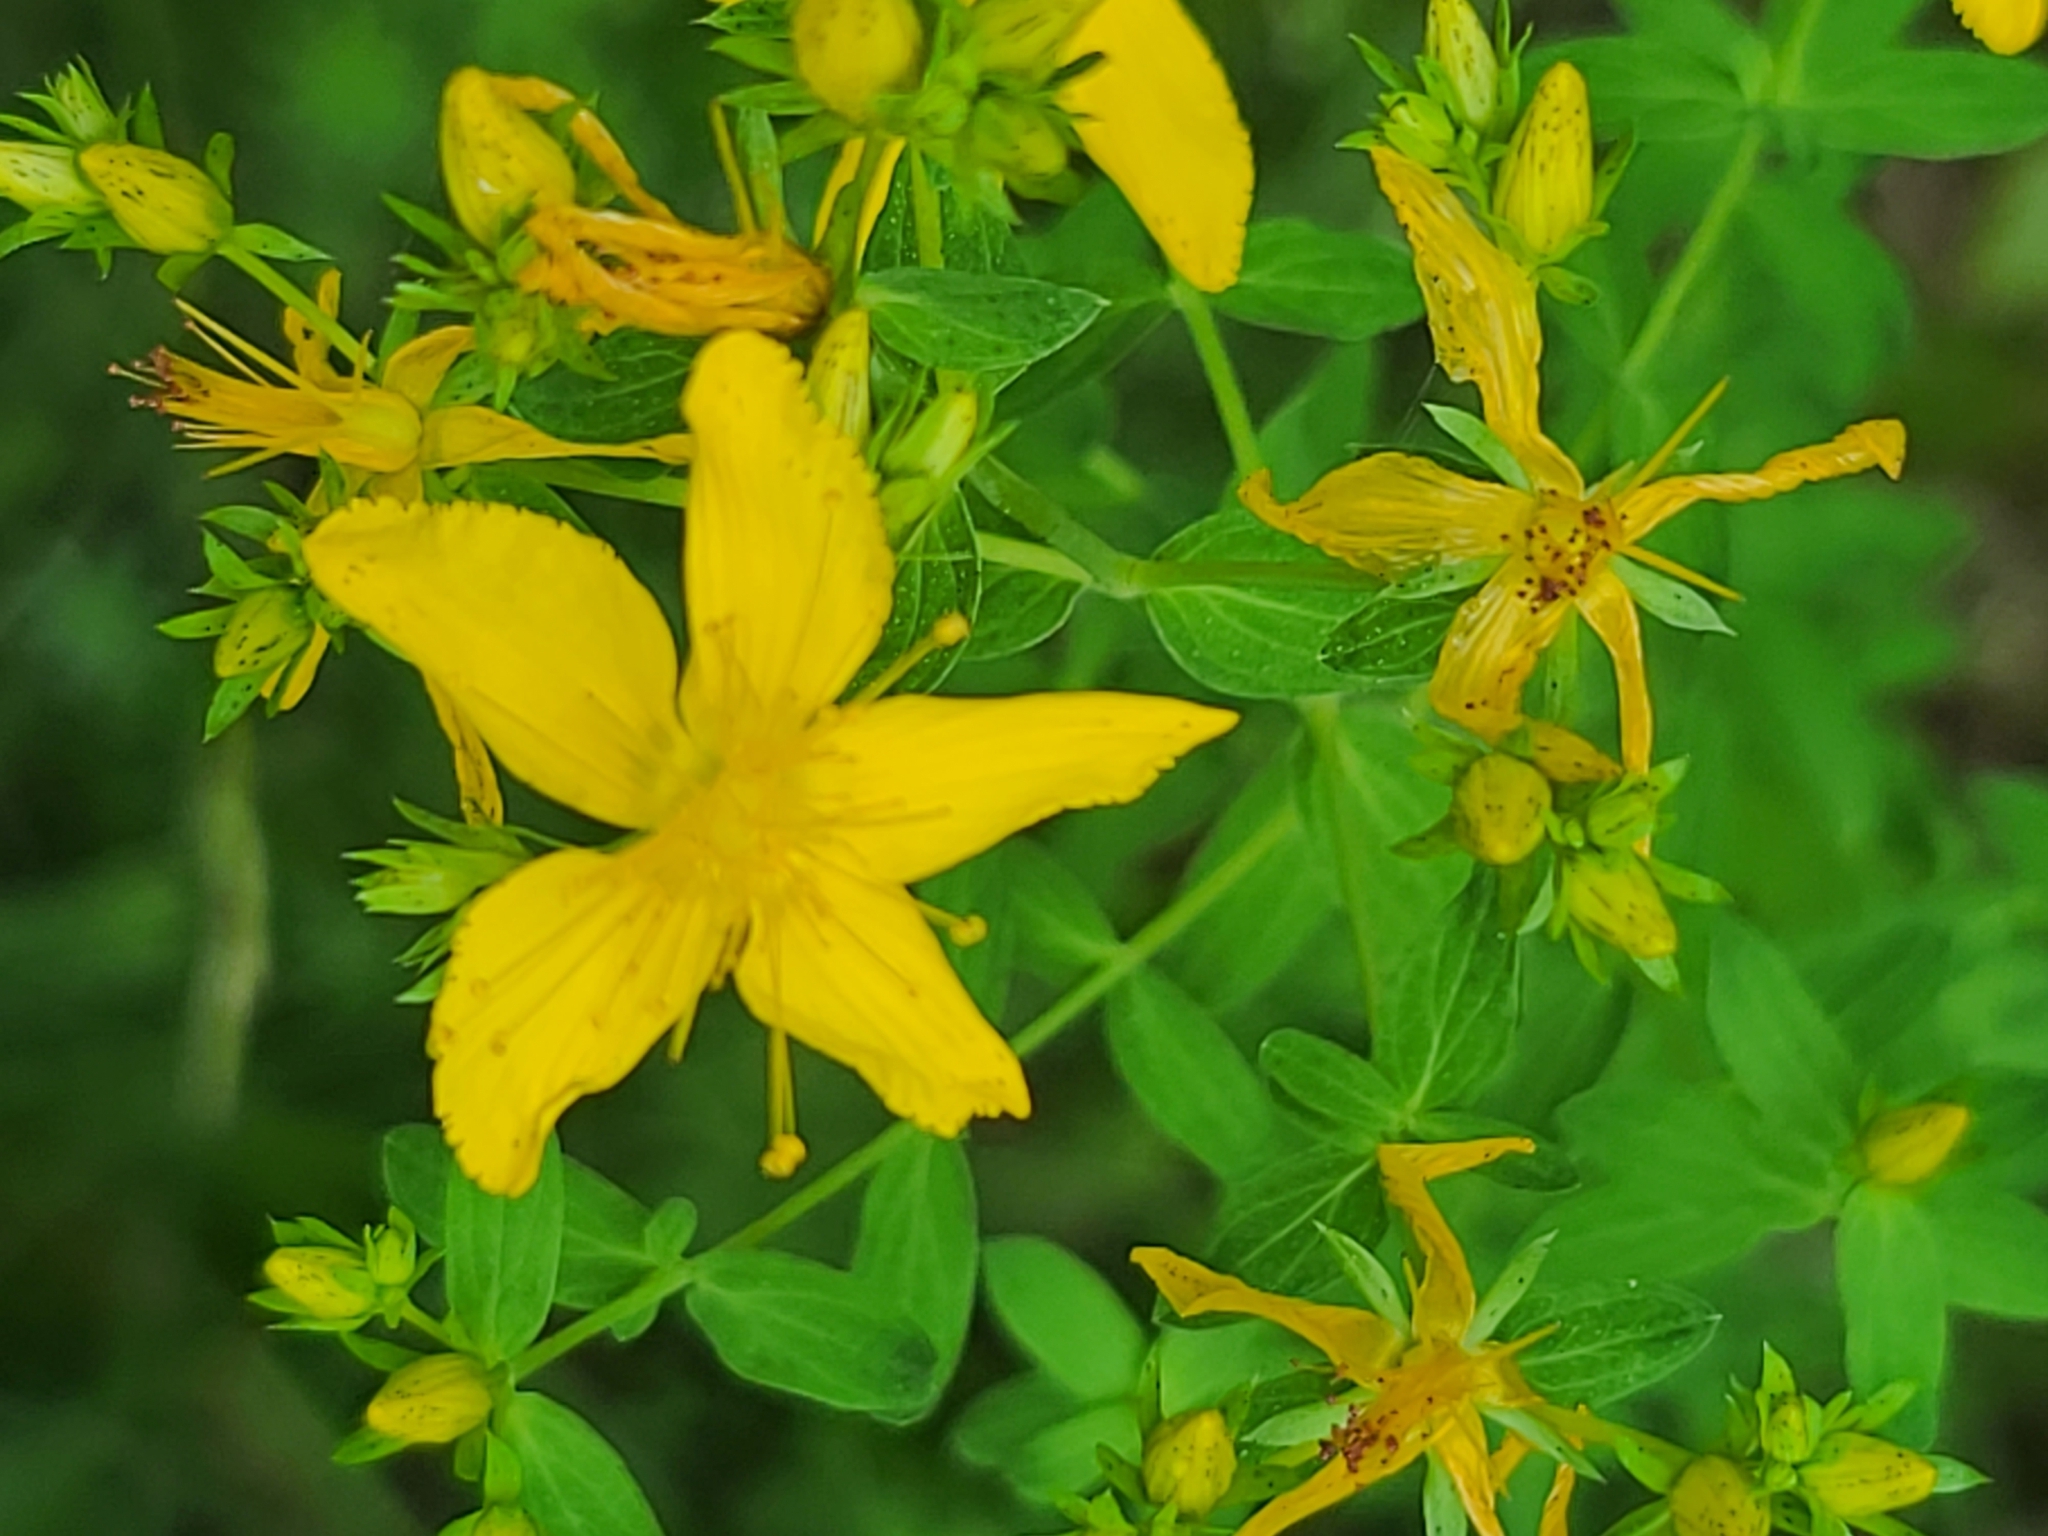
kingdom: Plantae
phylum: Tracheophyta
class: Magnoliopsida
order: Malpighiales
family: Hypericaceae
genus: Hypericum
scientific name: Hypericum perforatum
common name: Common st. johnswort
